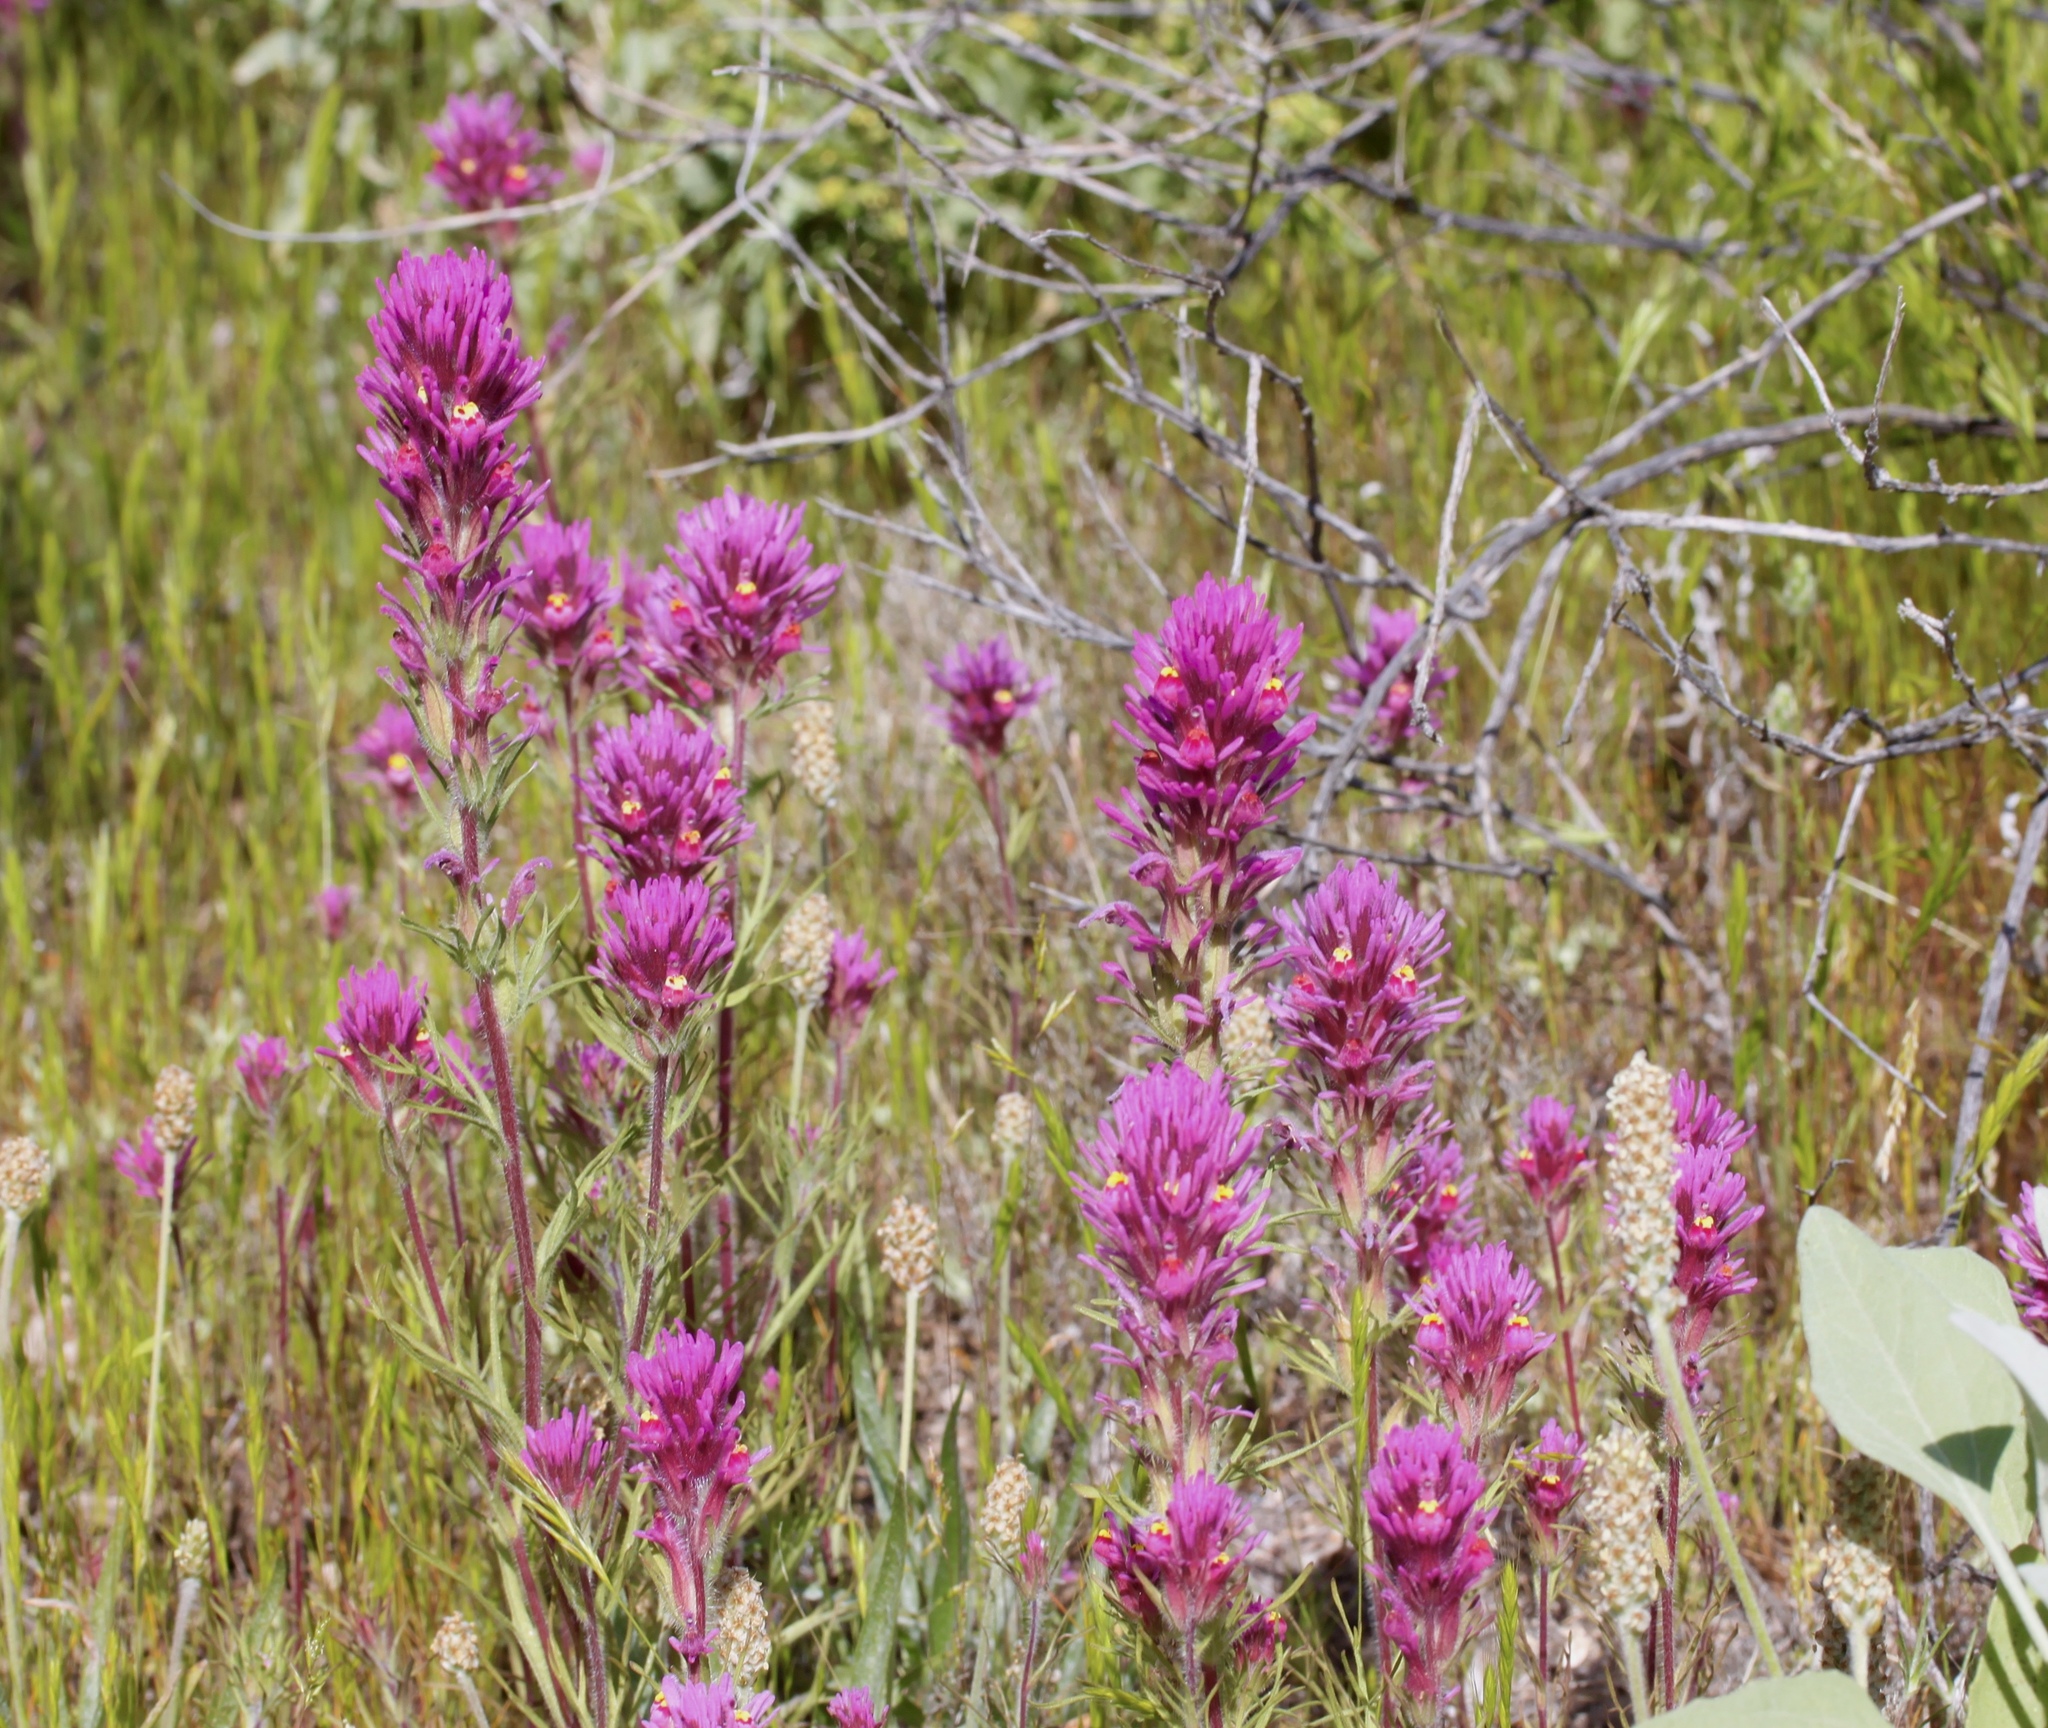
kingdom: Plantae
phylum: Tracheophyta
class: Magnoliopsida
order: Lamiales
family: Orobanchaceae
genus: Castilleja
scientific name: Castilleja exserta
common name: Purple owl-clover
